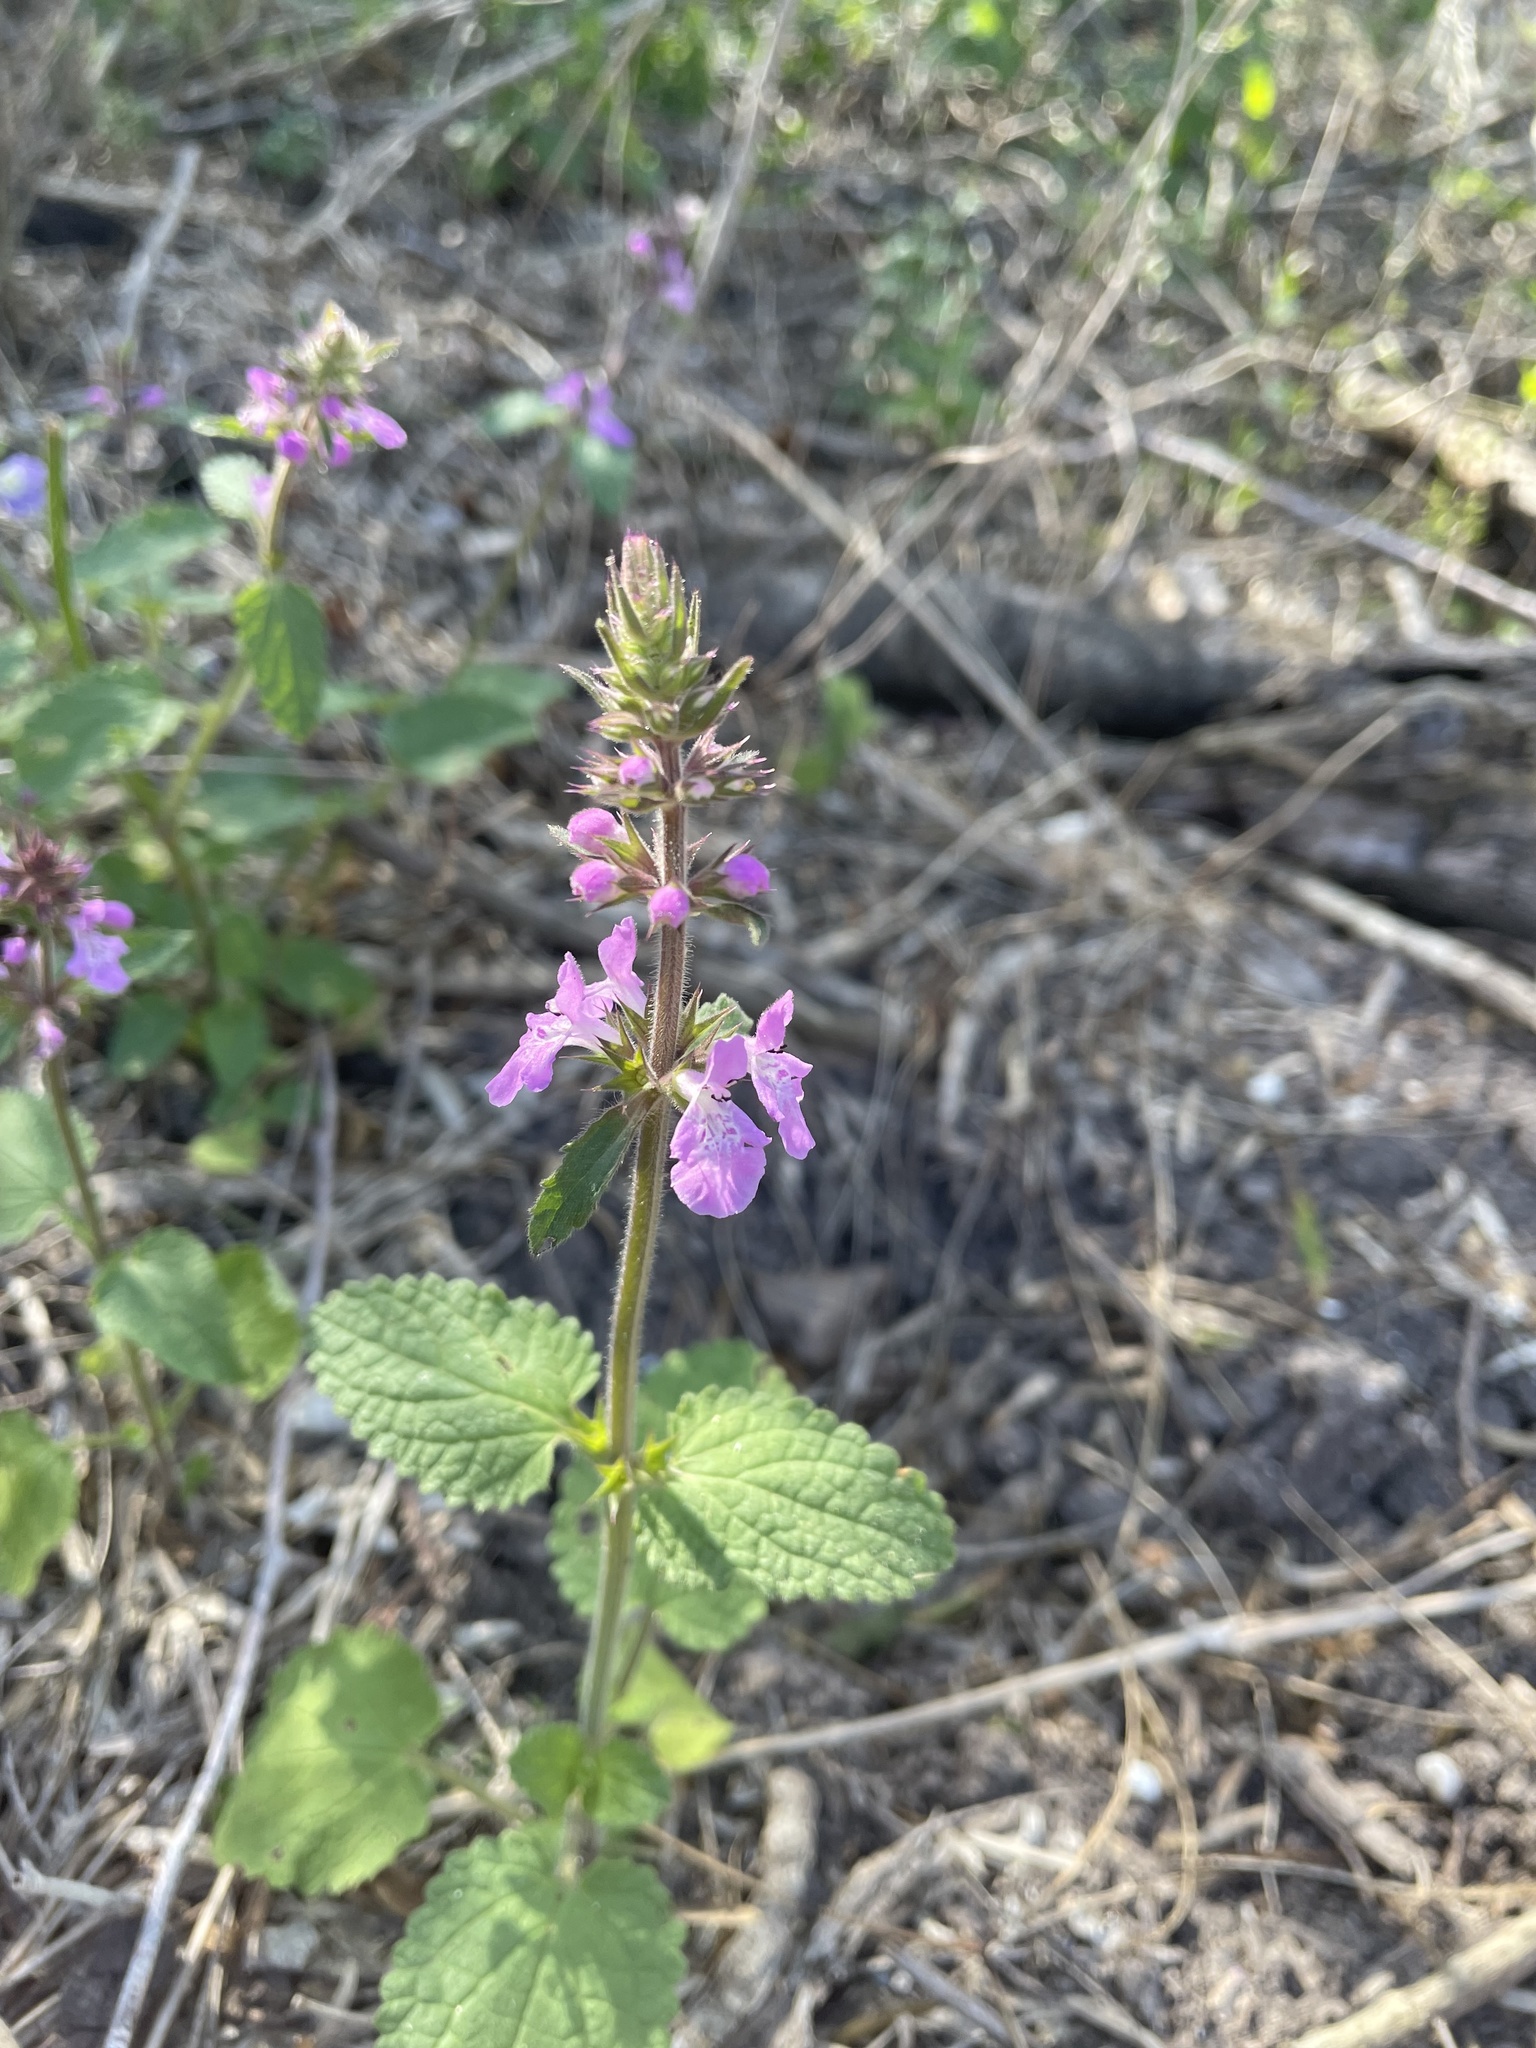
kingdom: Plantae
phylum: Tracheophyta
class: Magnoliopsida
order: Lamiales
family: Lamiaceae
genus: Stachys
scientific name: Stachys drummondii
